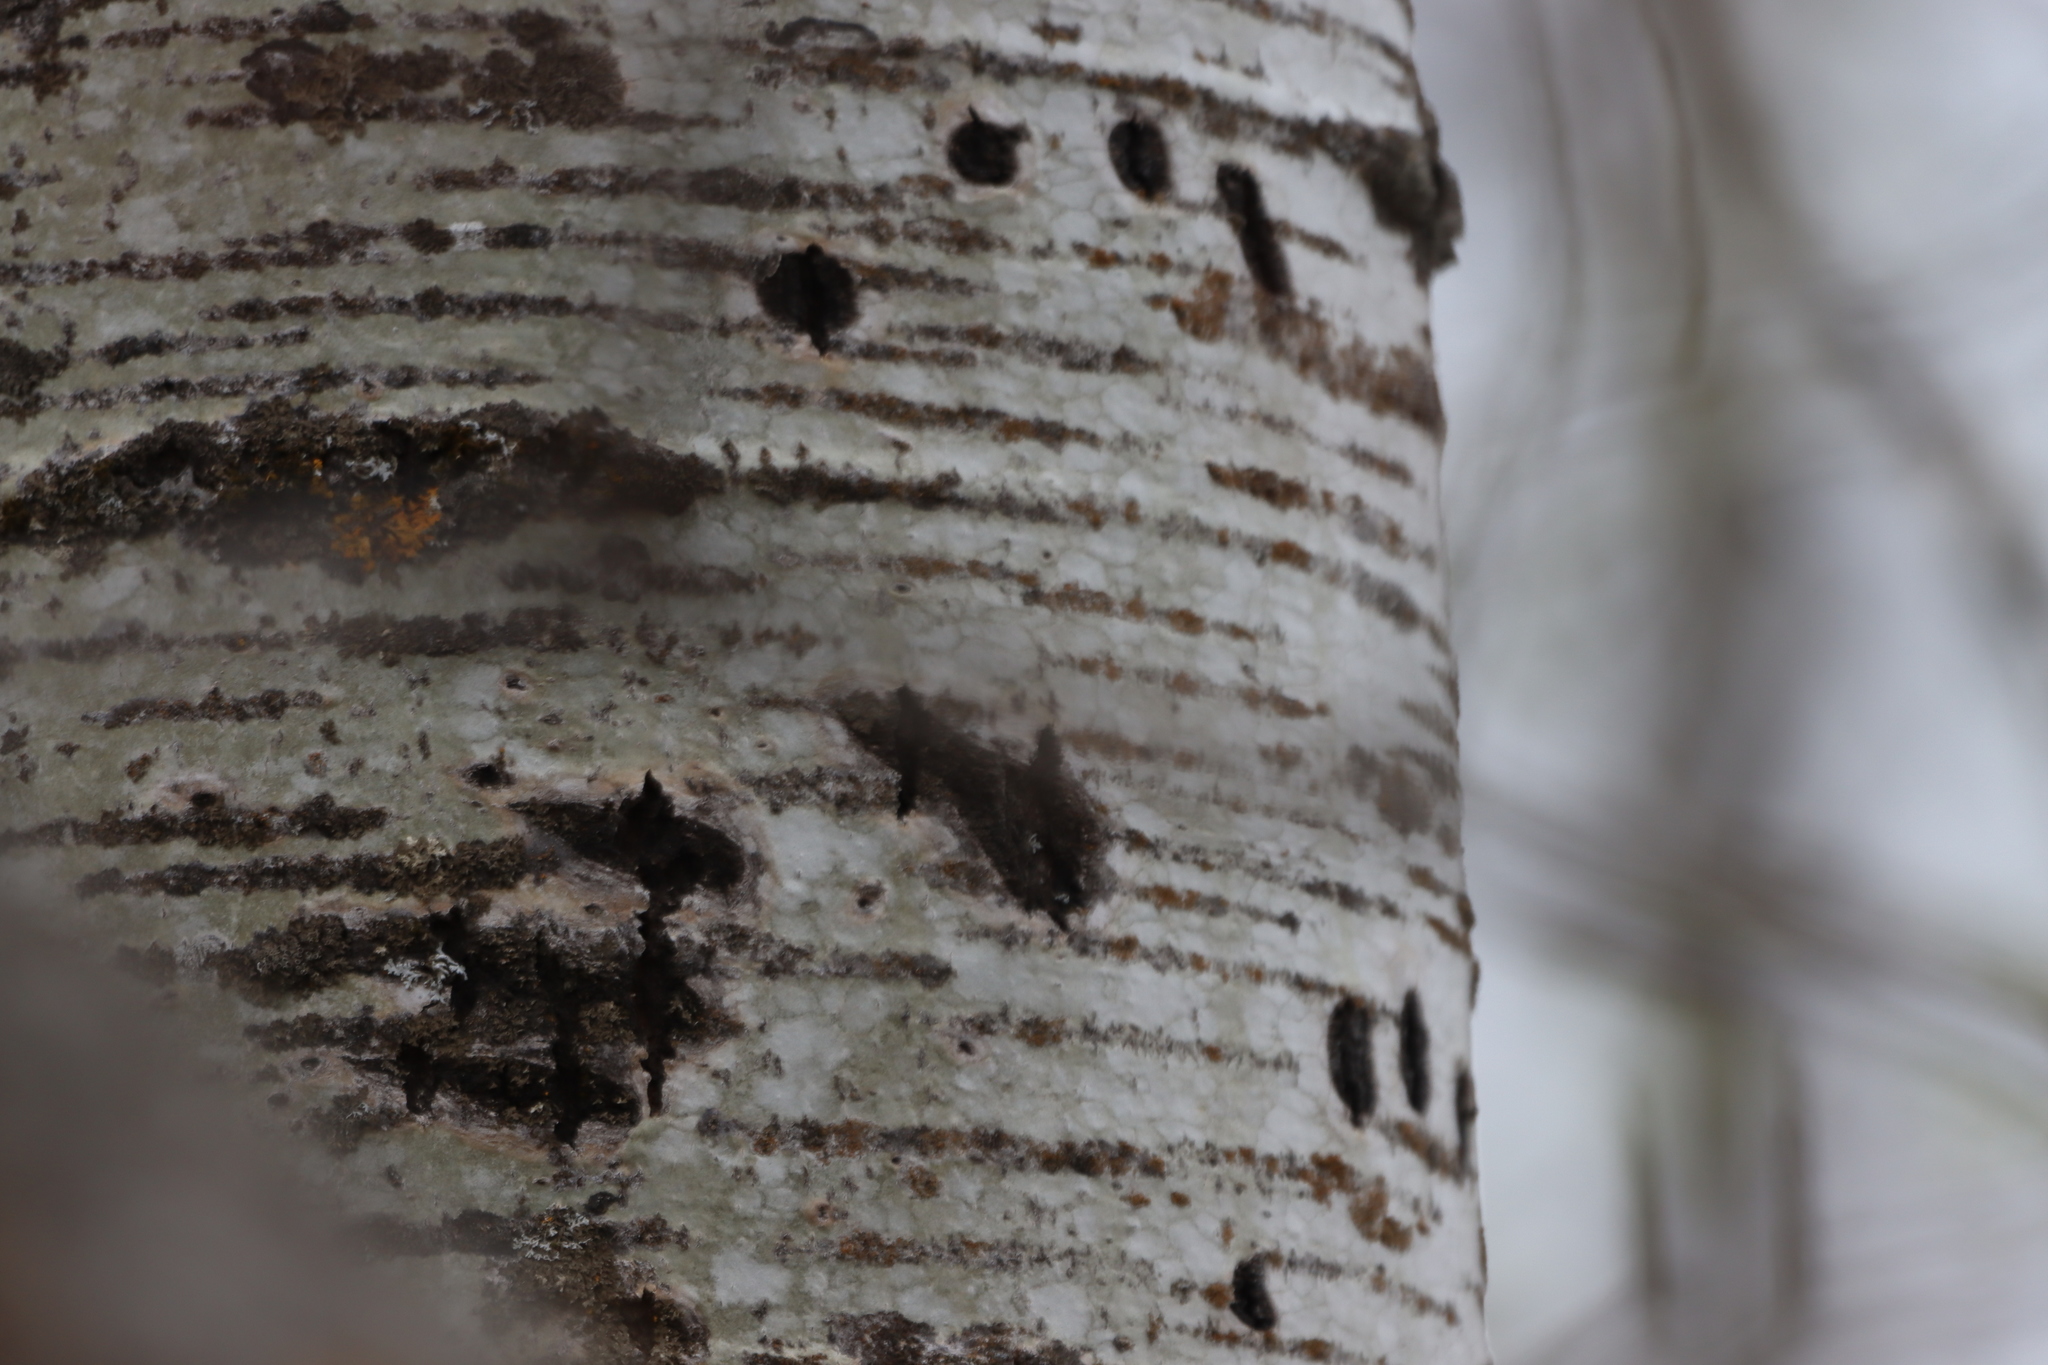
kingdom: Animalia
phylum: Chordata
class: Mammalia
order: Carnivora
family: Ursidae
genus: Ursus
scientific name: Ursus americanus
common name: American black bear
